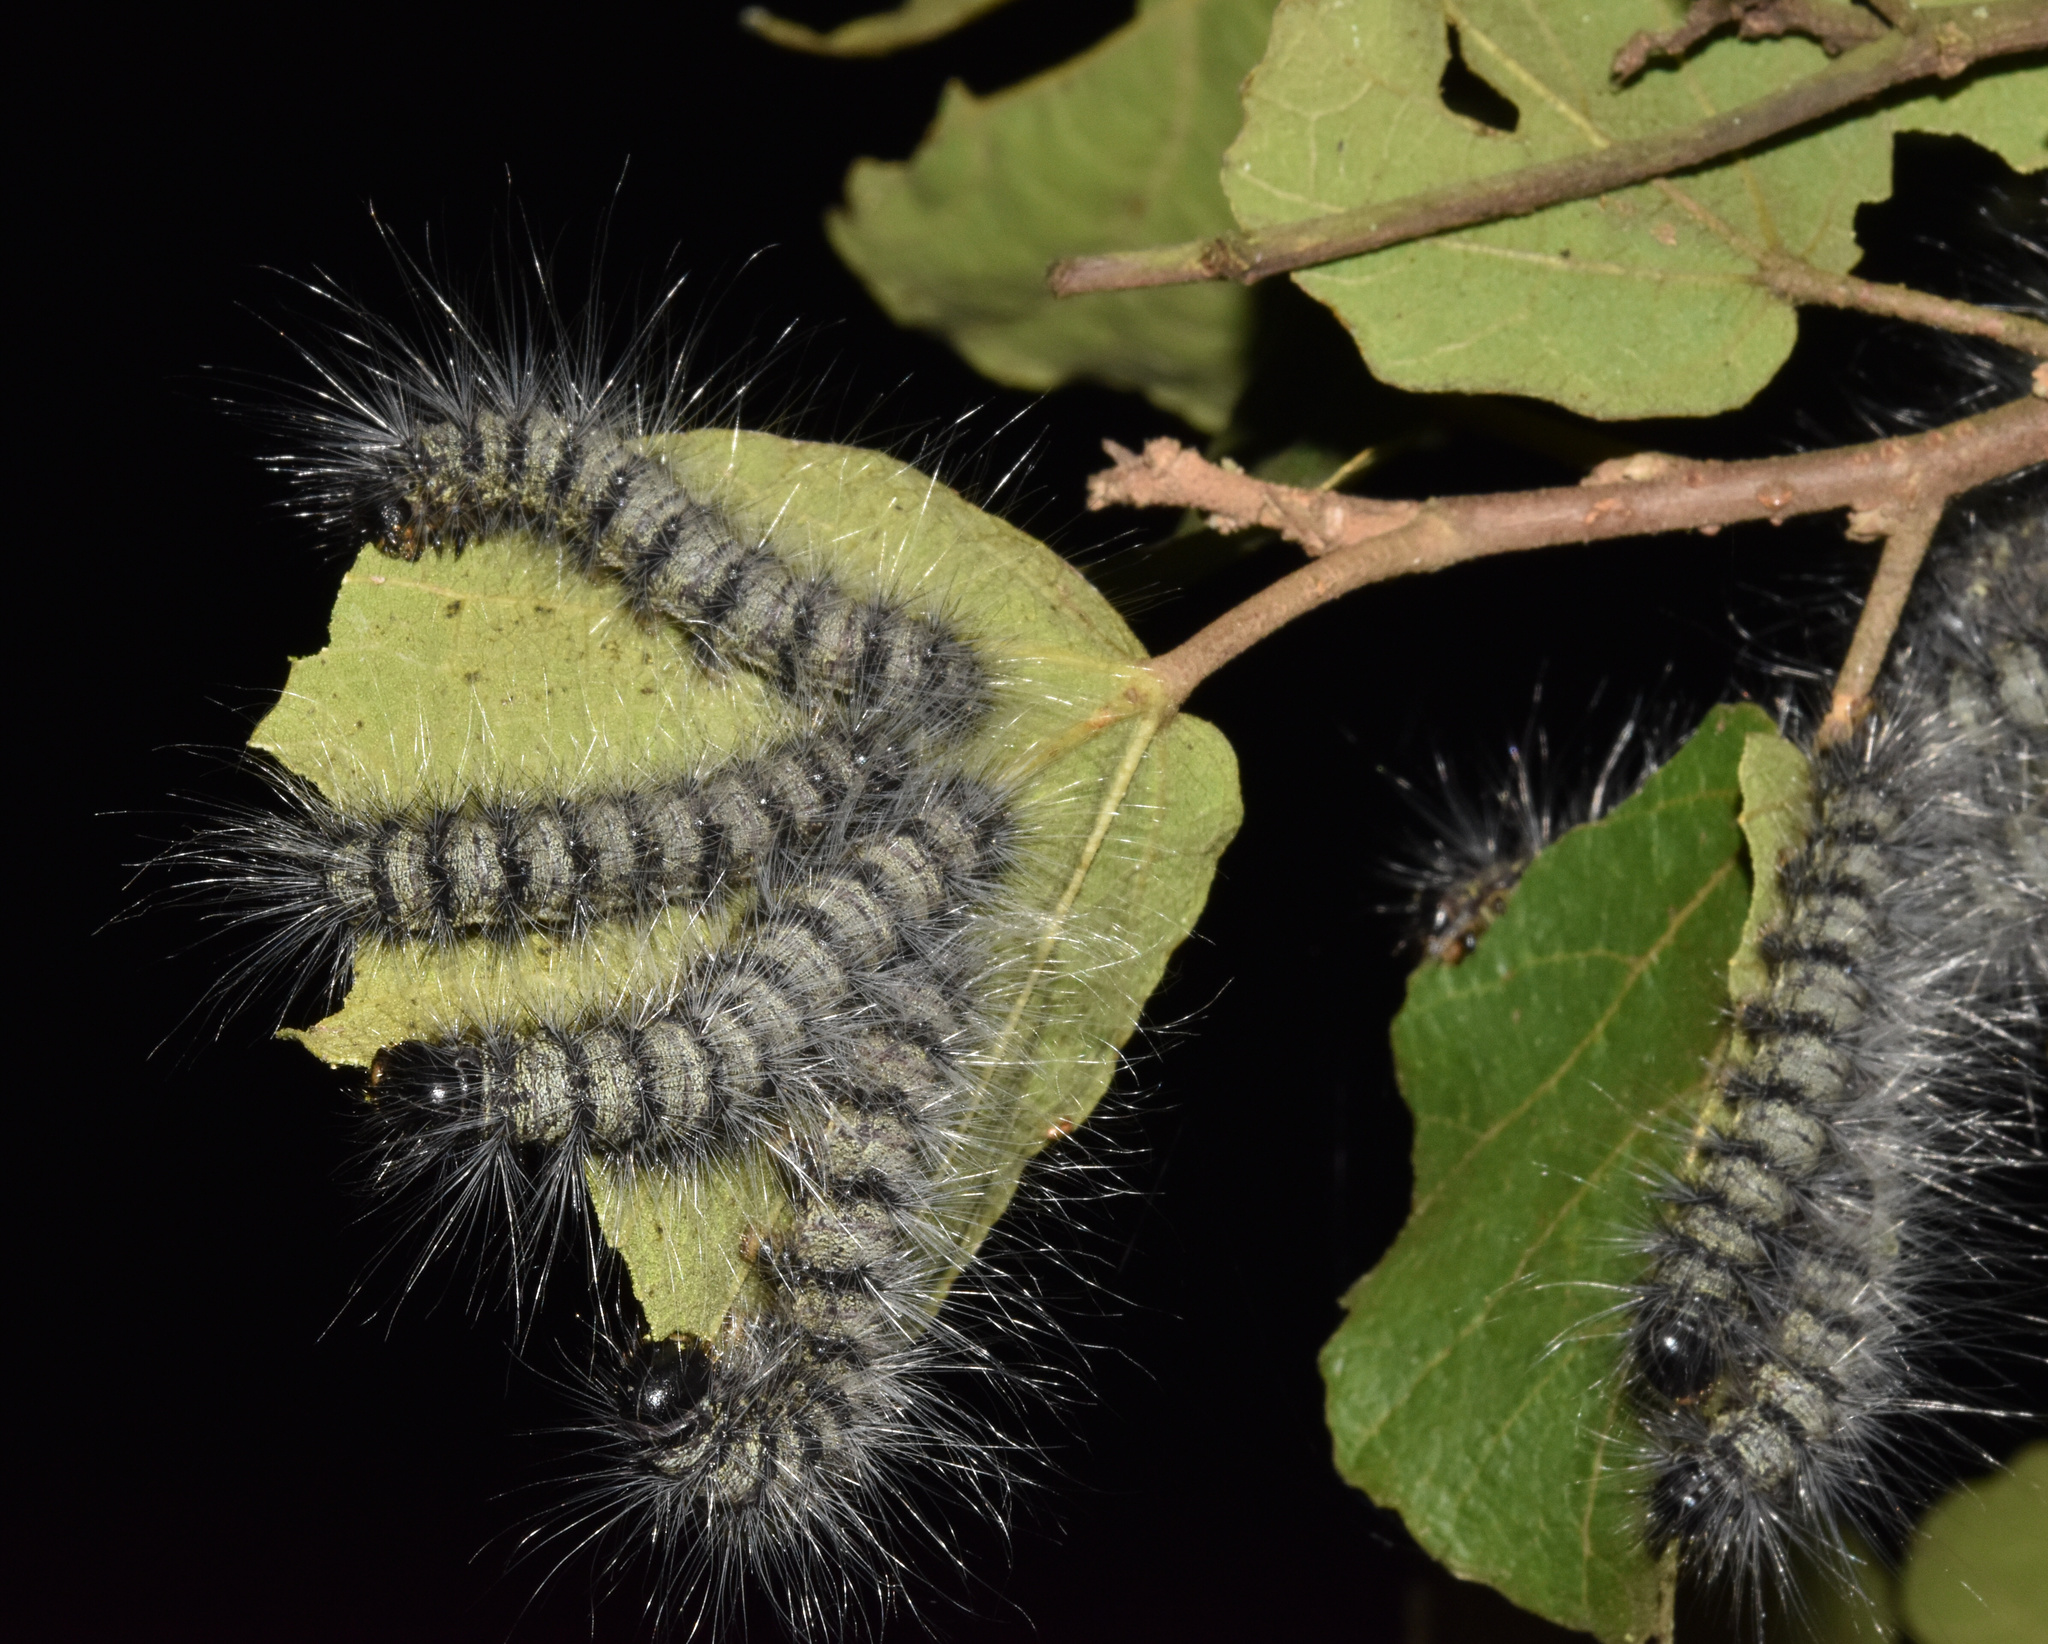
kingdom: Animalia
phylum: Arthropoda
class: Insecta
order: Lepidoptera
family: Notodontidae
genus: Anaphe
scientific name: Anaphe reticulata
